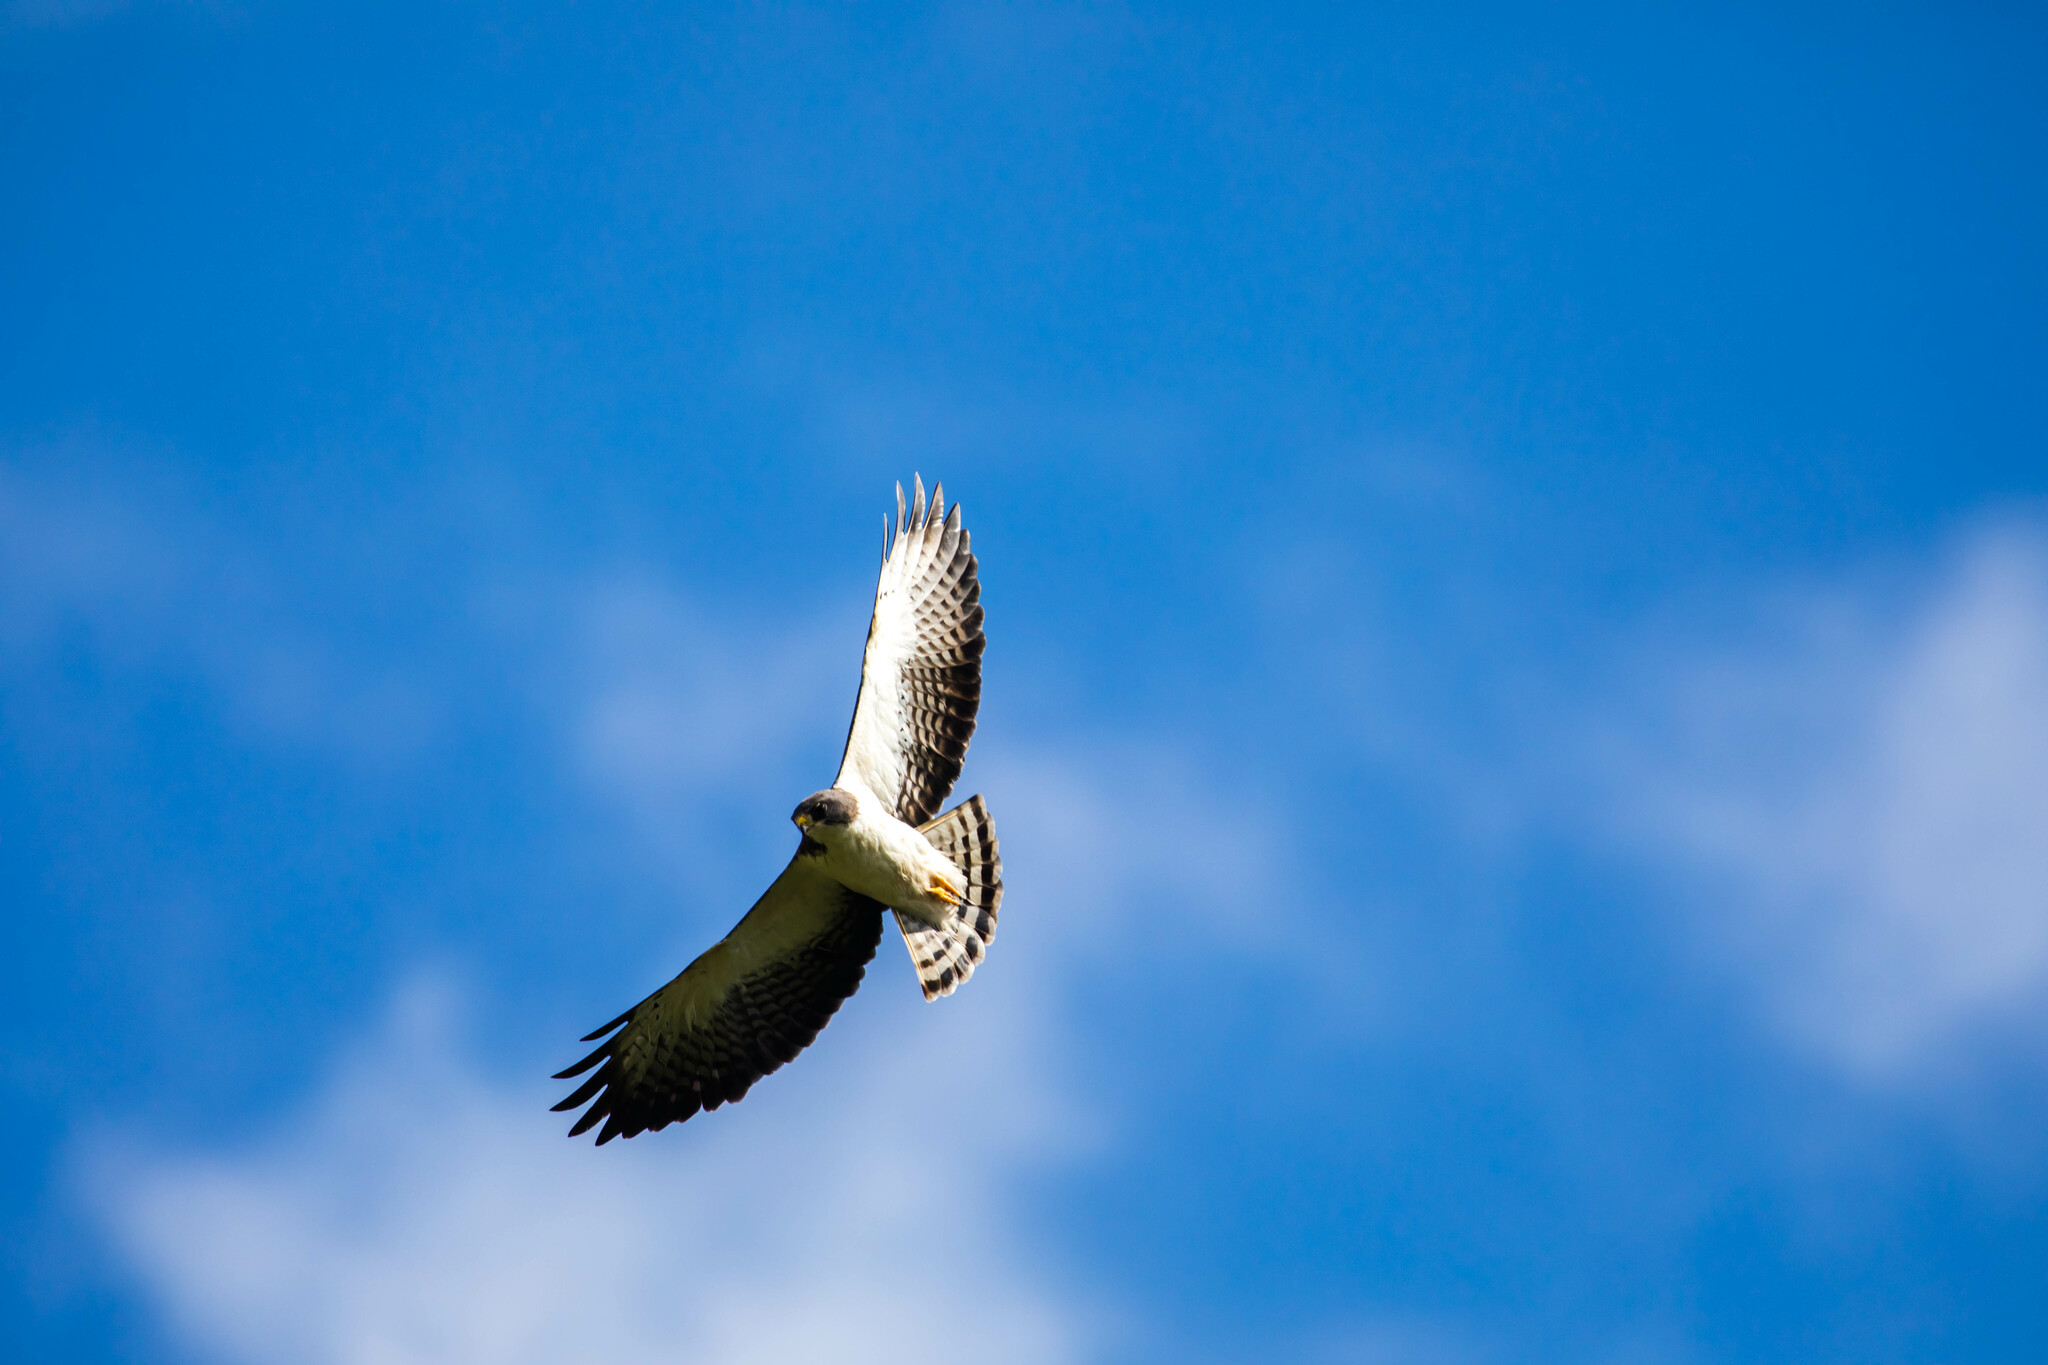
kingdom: Animalia
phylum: Chordata
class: Aves
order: Accipitriformes
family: Accipitridae
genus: Buteo
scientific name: Buteo brachyurus
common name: Short-tailed hawk
